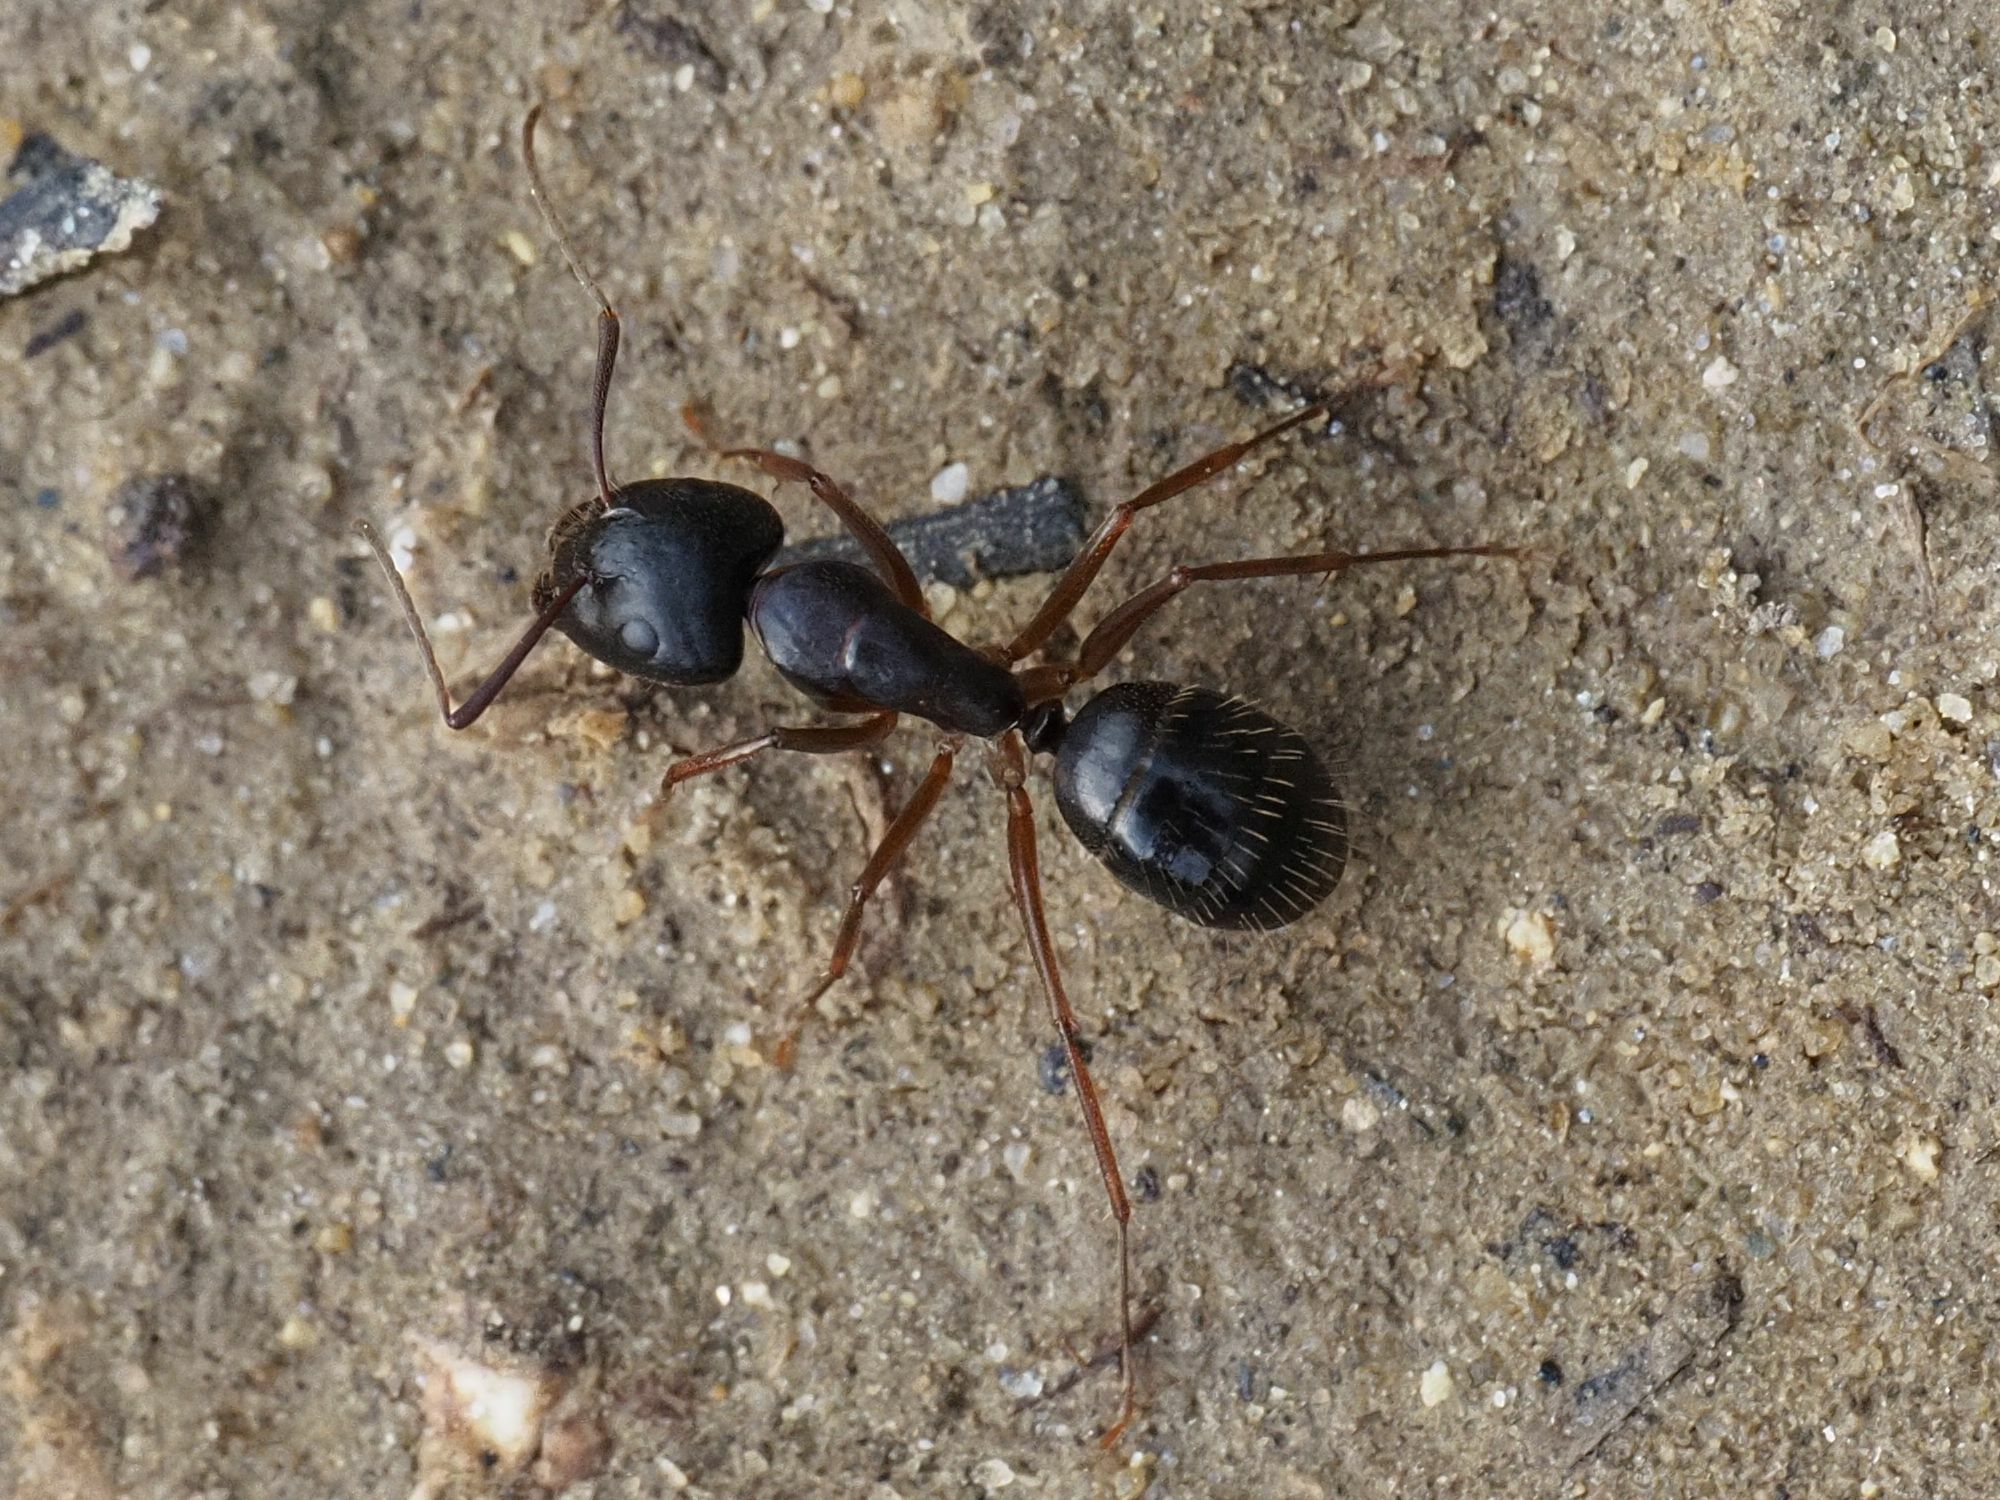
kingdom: Animalia
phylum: Arthropoda
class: Insecta
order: Hymenoptera
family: Formicidae
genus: Camponotus
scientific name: Camponotus aethiops
